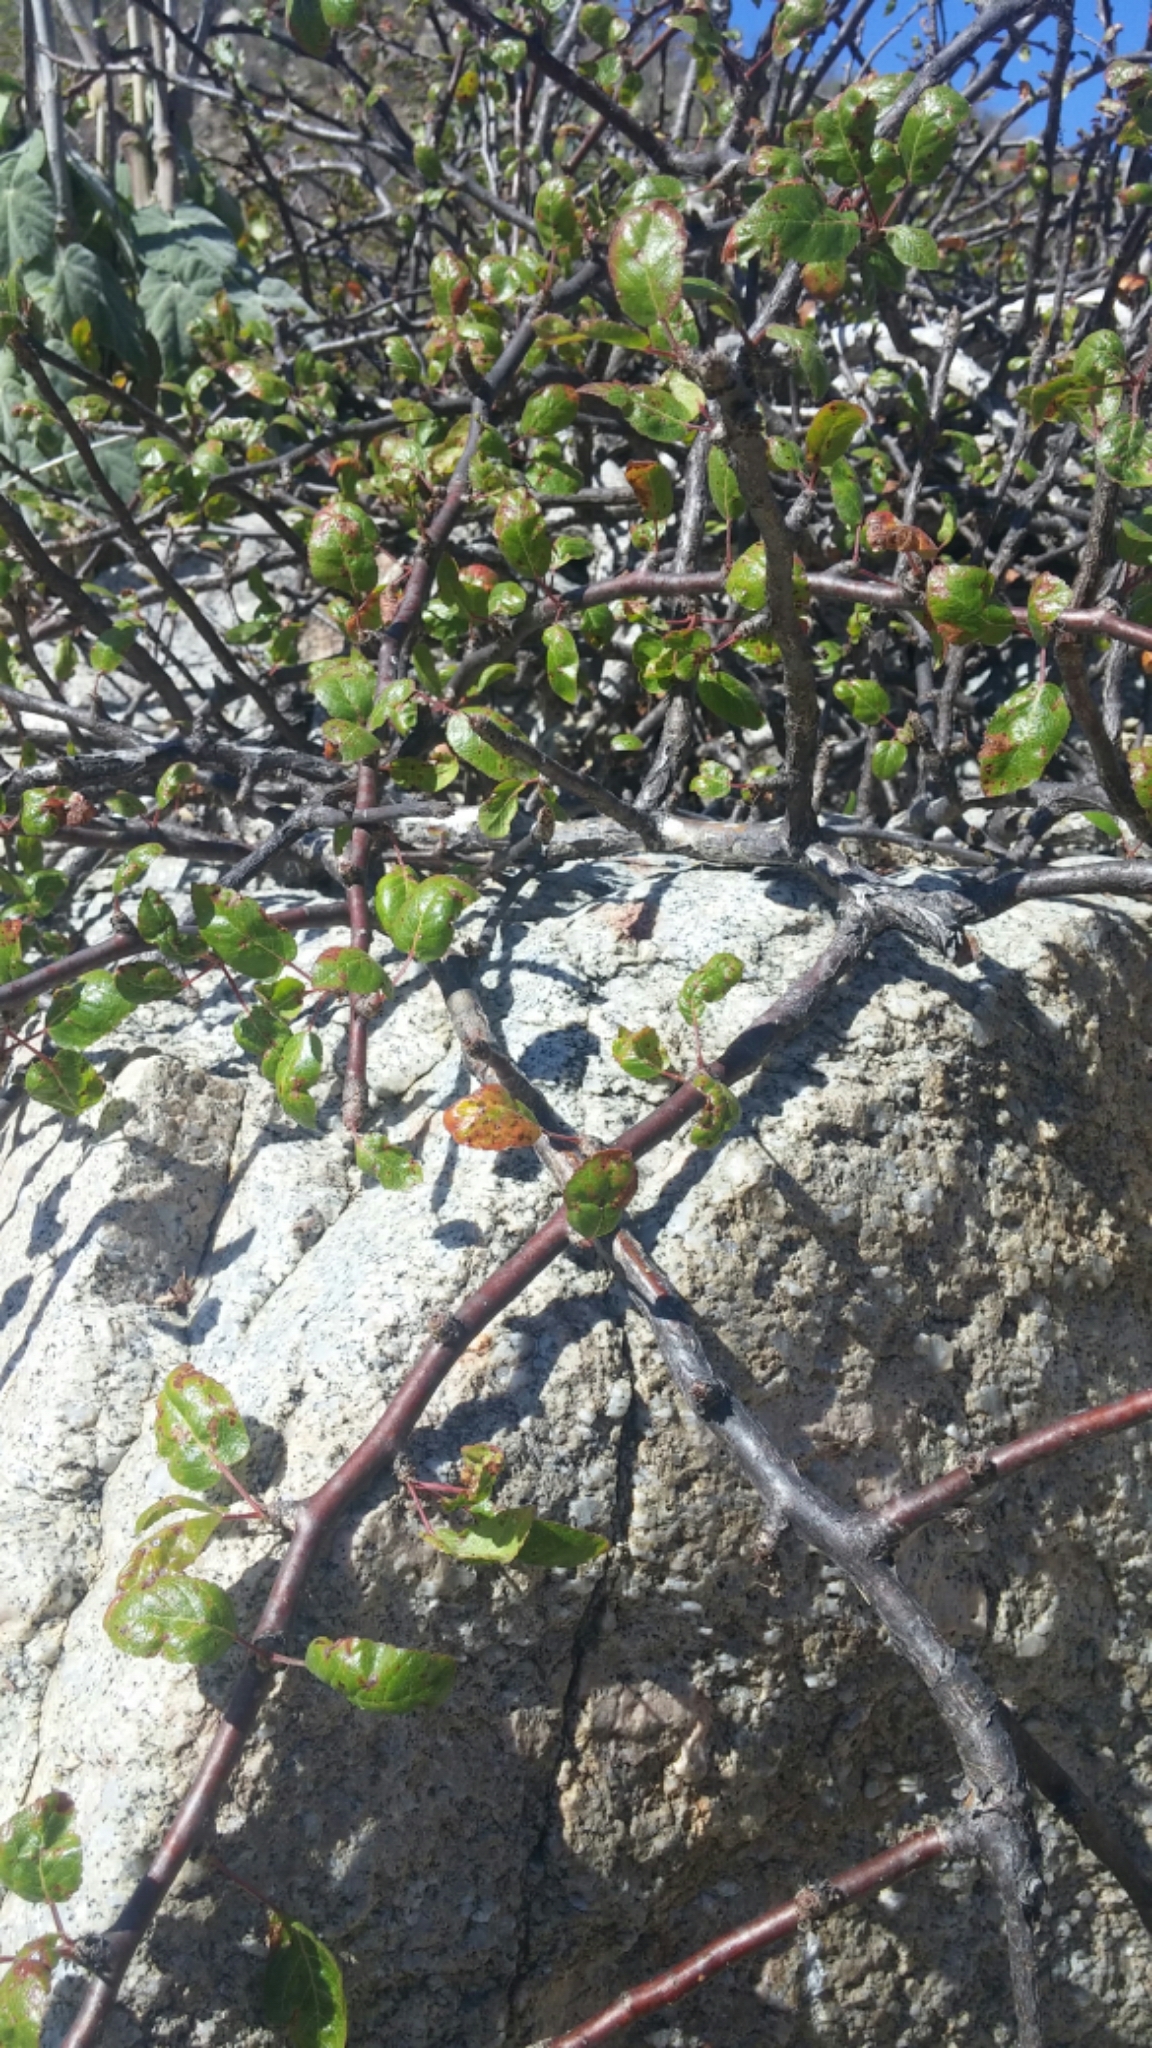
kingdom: Plantae
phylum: Tracheophyta
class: Magnoliopsida
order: Sapindales
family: Burseraceae
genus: Bursera
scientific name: Bursera rupicola
